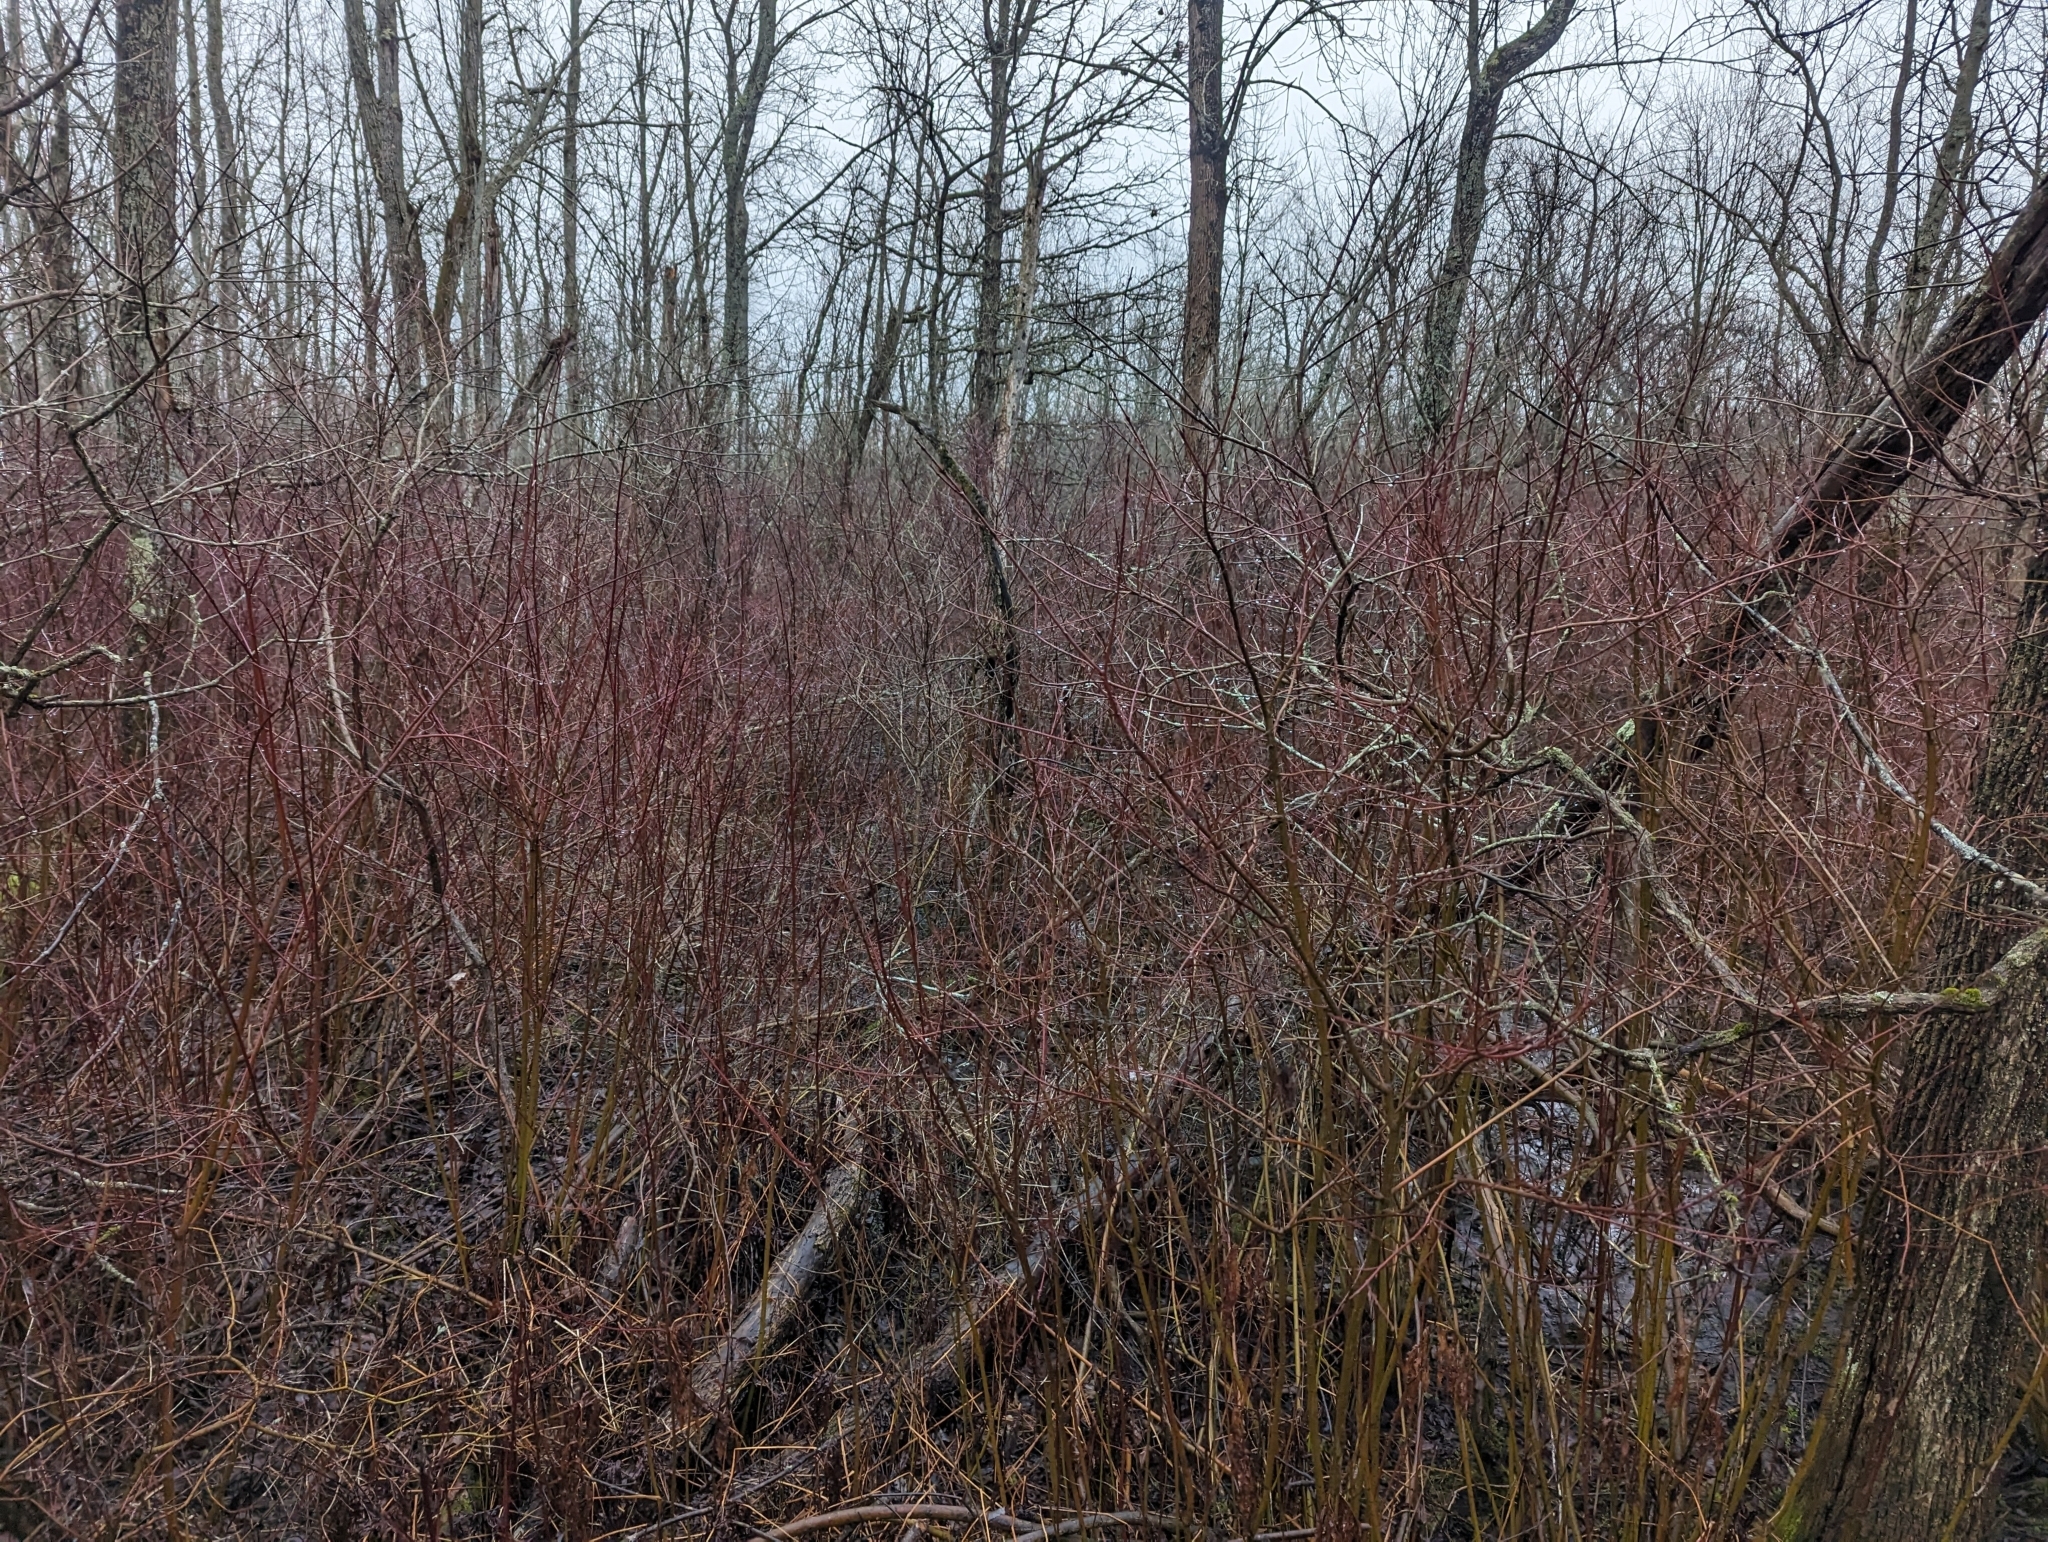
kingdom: Plantae
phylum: Tracheophyta
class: Magnoliopsida
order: Cornales
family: Cornaceae
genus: Cornus
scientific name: Cornus sericea
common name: Red-osier dogwood
